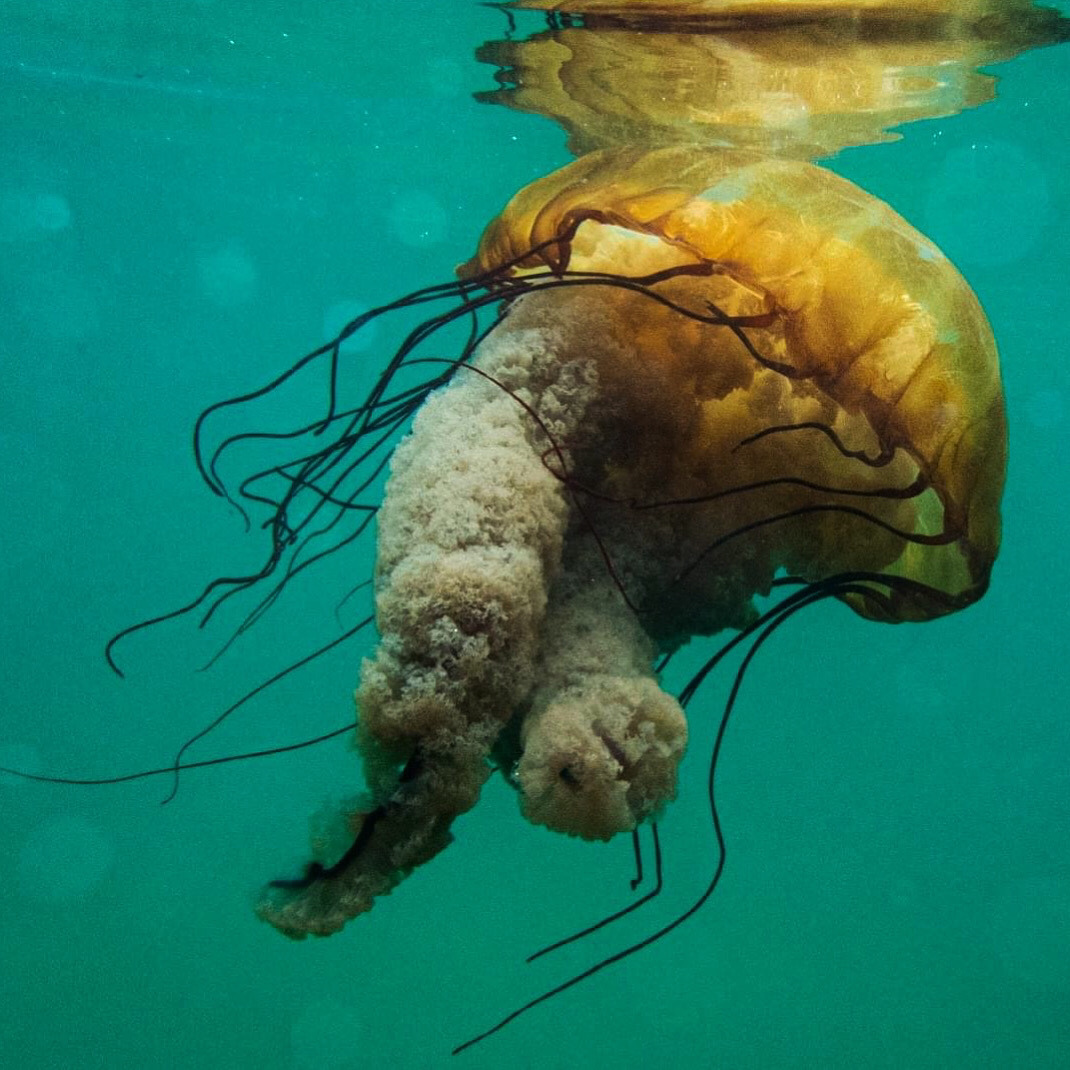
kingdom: Animalia
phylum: Cnidaria
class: Scyphozoa
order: Semaeostomeae
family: Pelagiidae
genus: Chrysaora
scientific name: Chrysaora fuscescens
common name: Sea nettle
